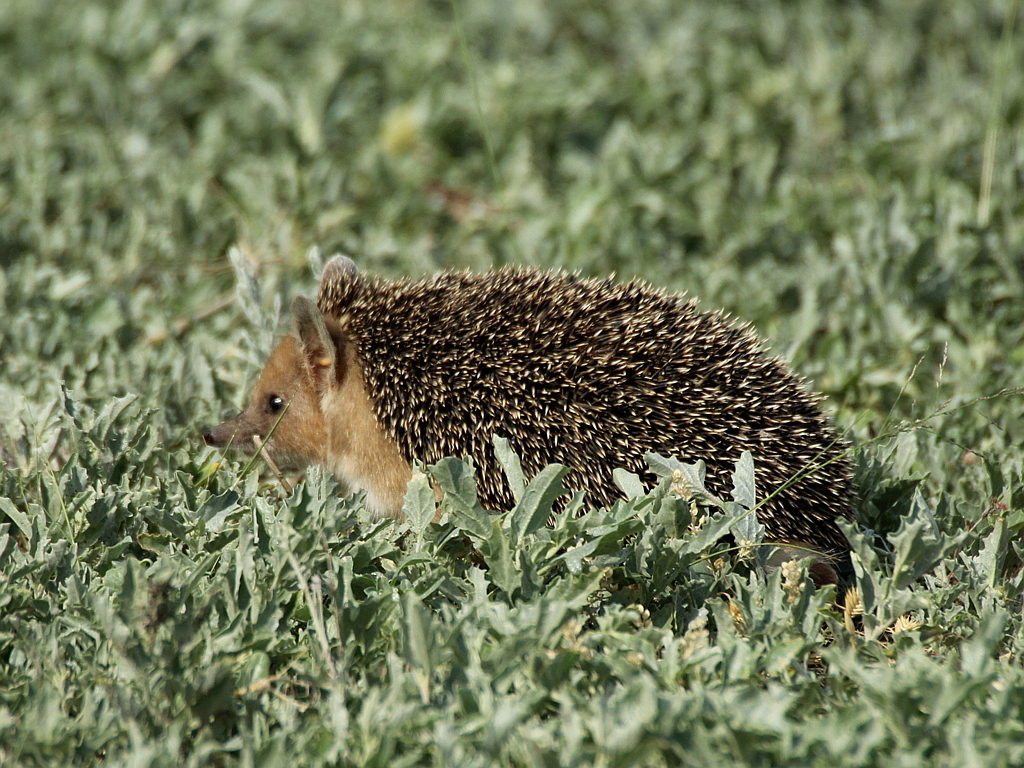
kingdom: Animalia
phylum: Chordata
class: Mammalia
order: Erinaceomorpha
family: Erinaceidae
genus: Hemiechinus
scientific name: Hemiechinus auritus
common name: Long-eared hedgehog
